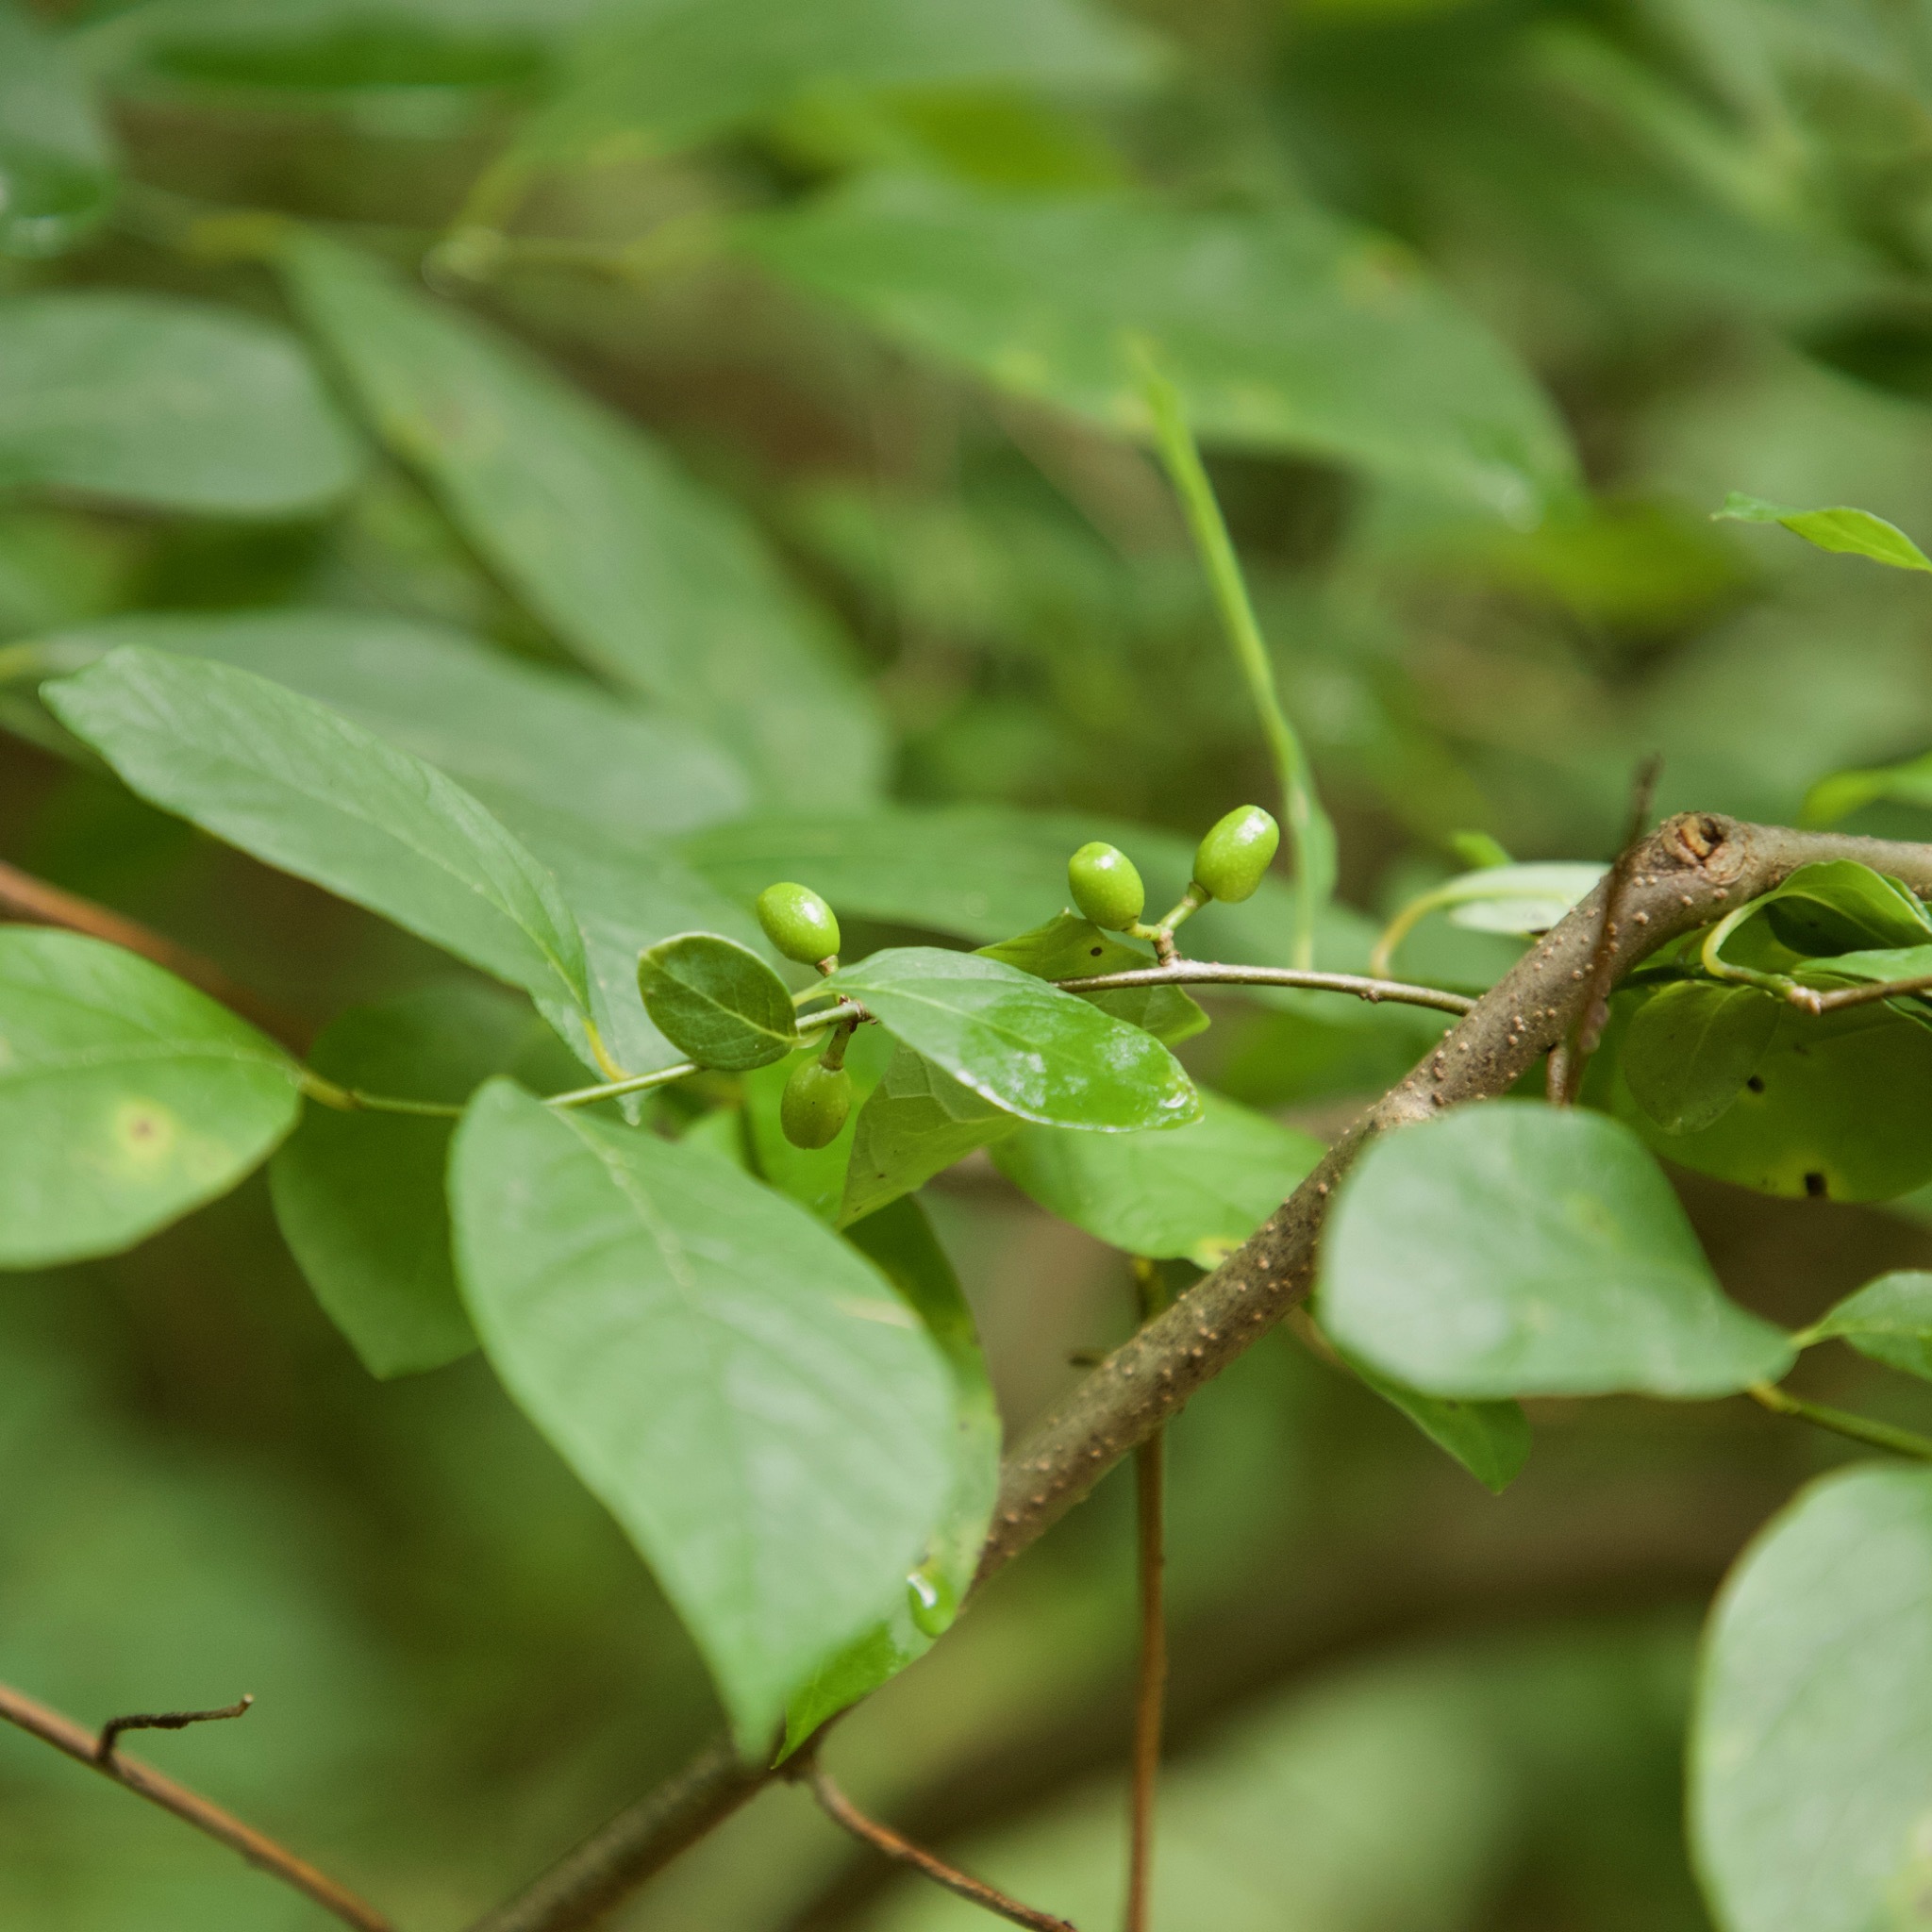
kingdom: Plantae
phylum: Tracheophyta
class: Magnoliopsida
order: Laurales
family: Lauraceae
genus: Lindera
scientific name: Lindera benzoin
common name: Spicebush
